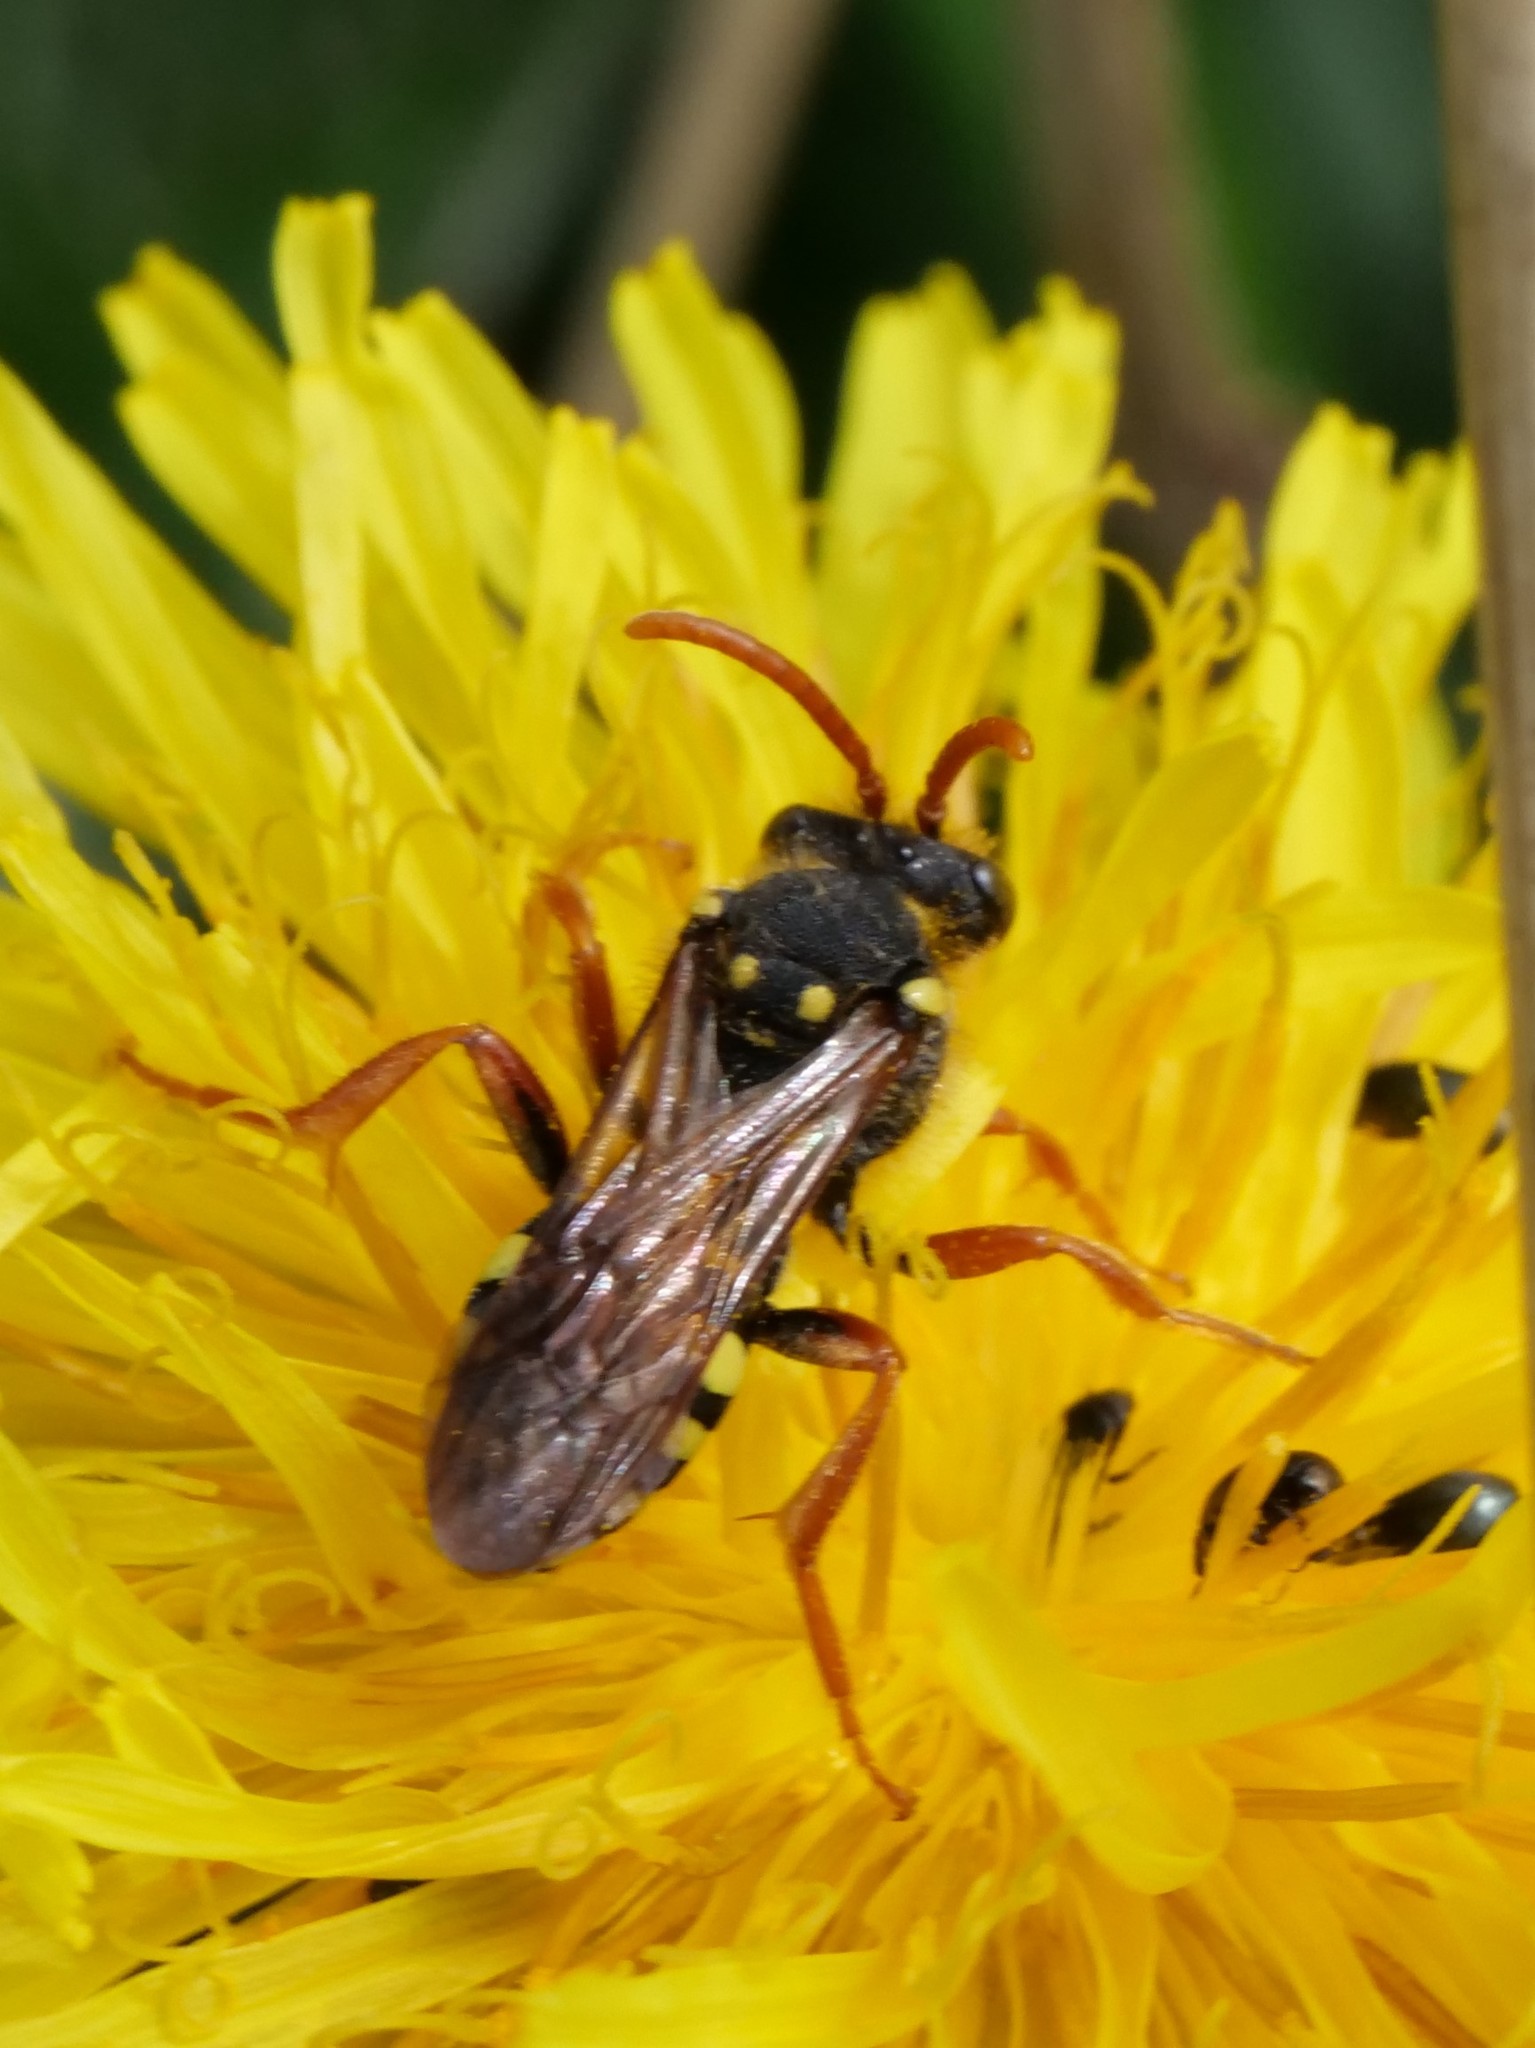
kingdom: Animalia
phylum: Arthropoda
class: Insecta
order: Hymenoptera
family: Apidae
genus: Nomada
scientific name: Nomada goodeniana
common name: Gooden's nomad bee
